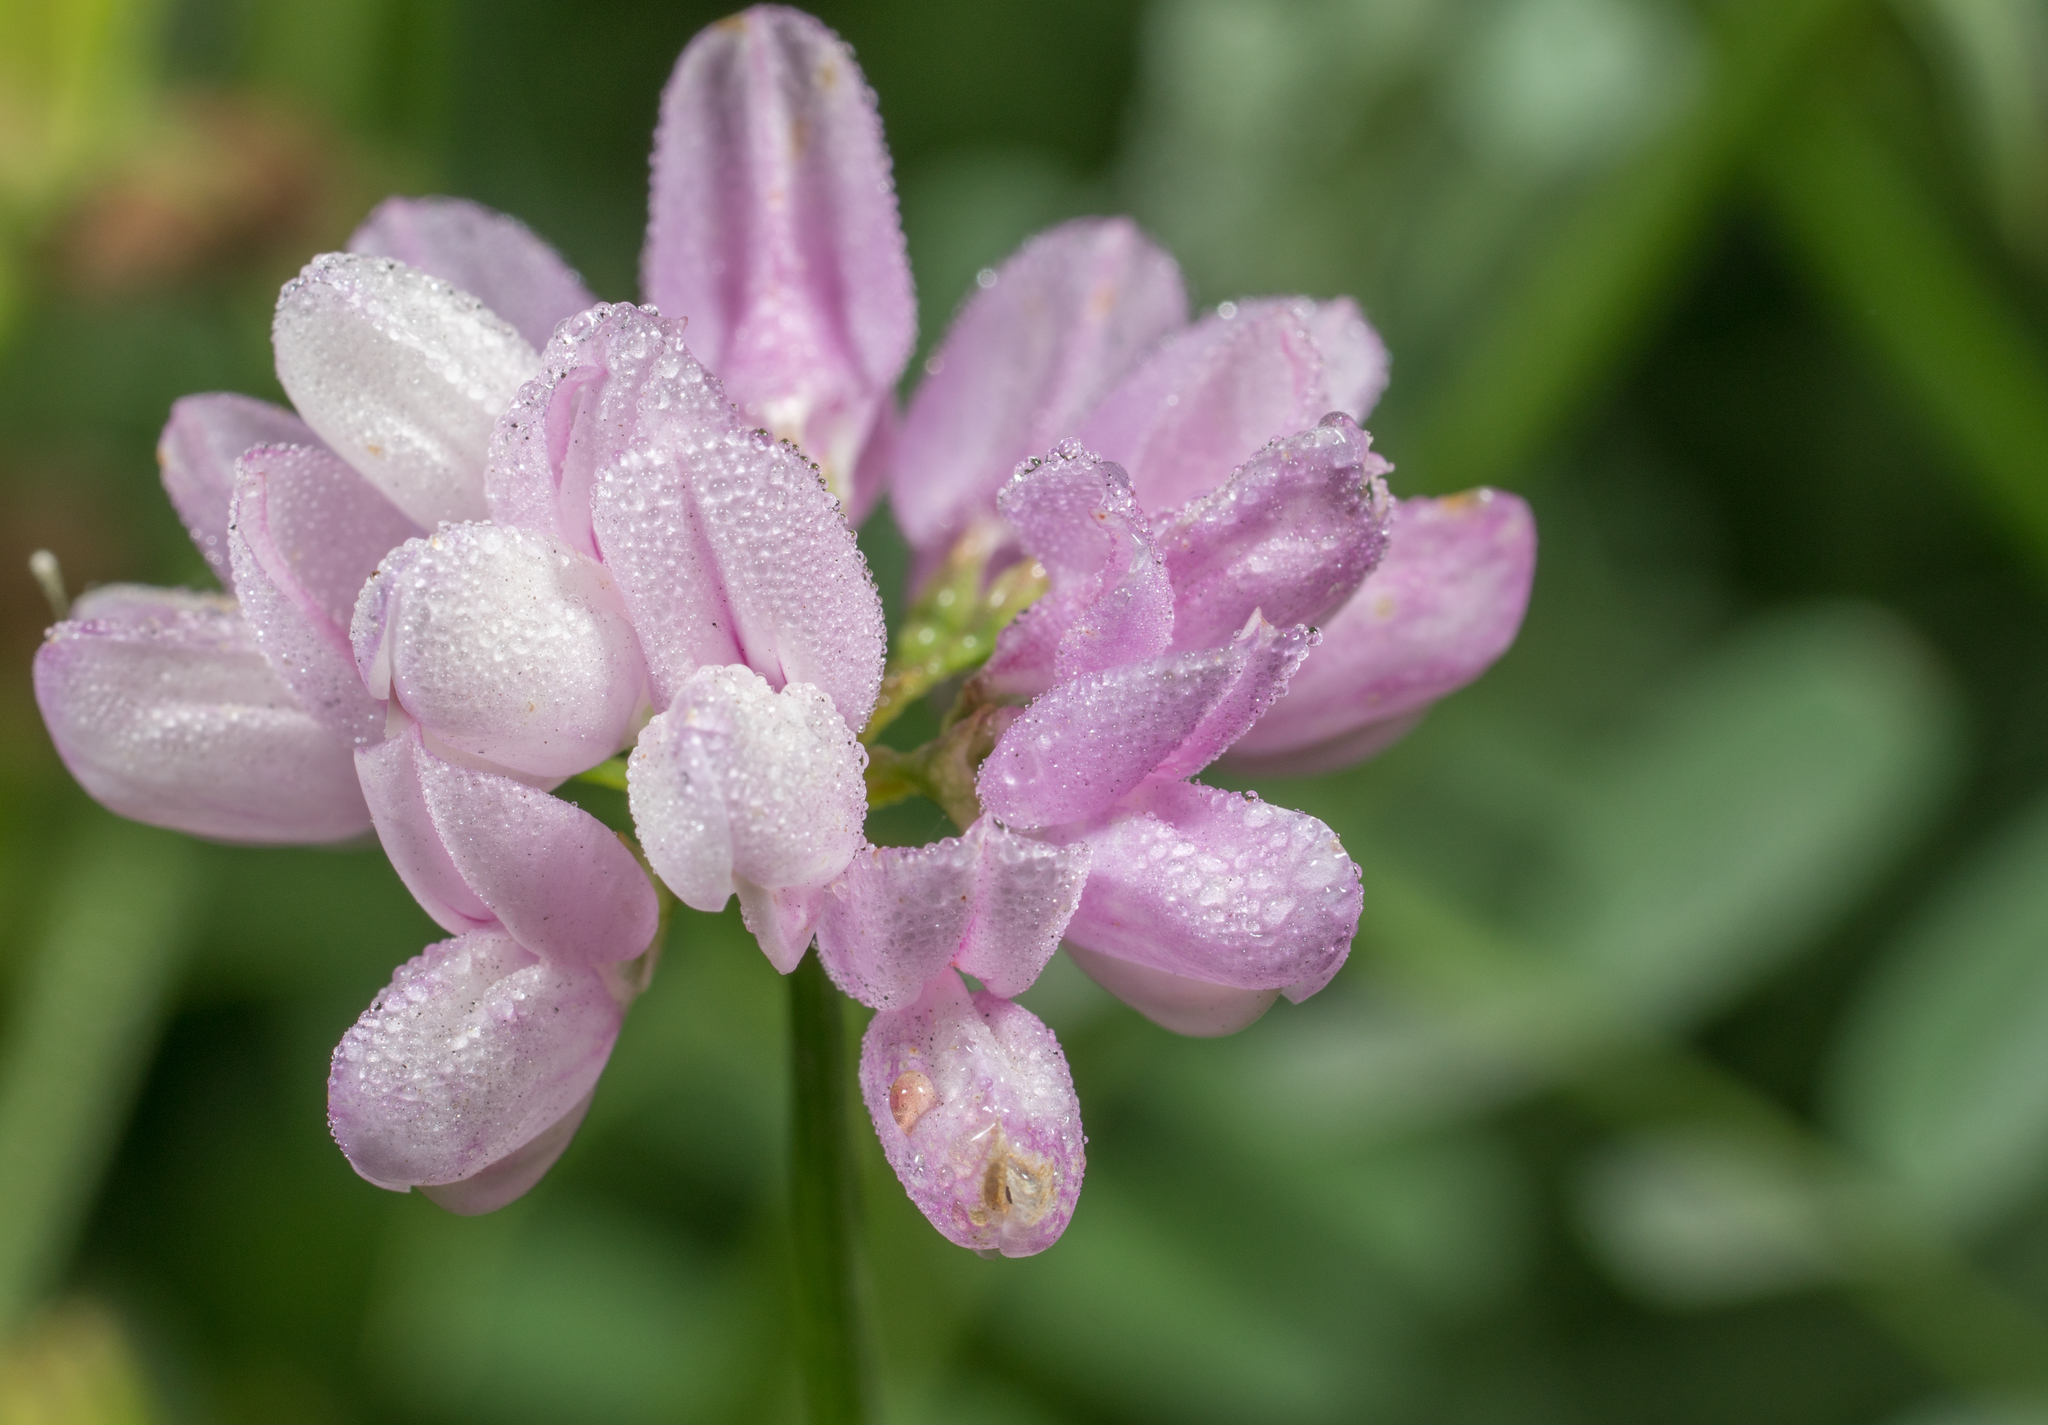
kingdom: Plantae
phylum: Tracheophyta
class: Magnoliopsida
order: Fabales
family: Fabaceae
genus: Coronilla
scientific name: Coronilla varia
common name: Crownvetch
